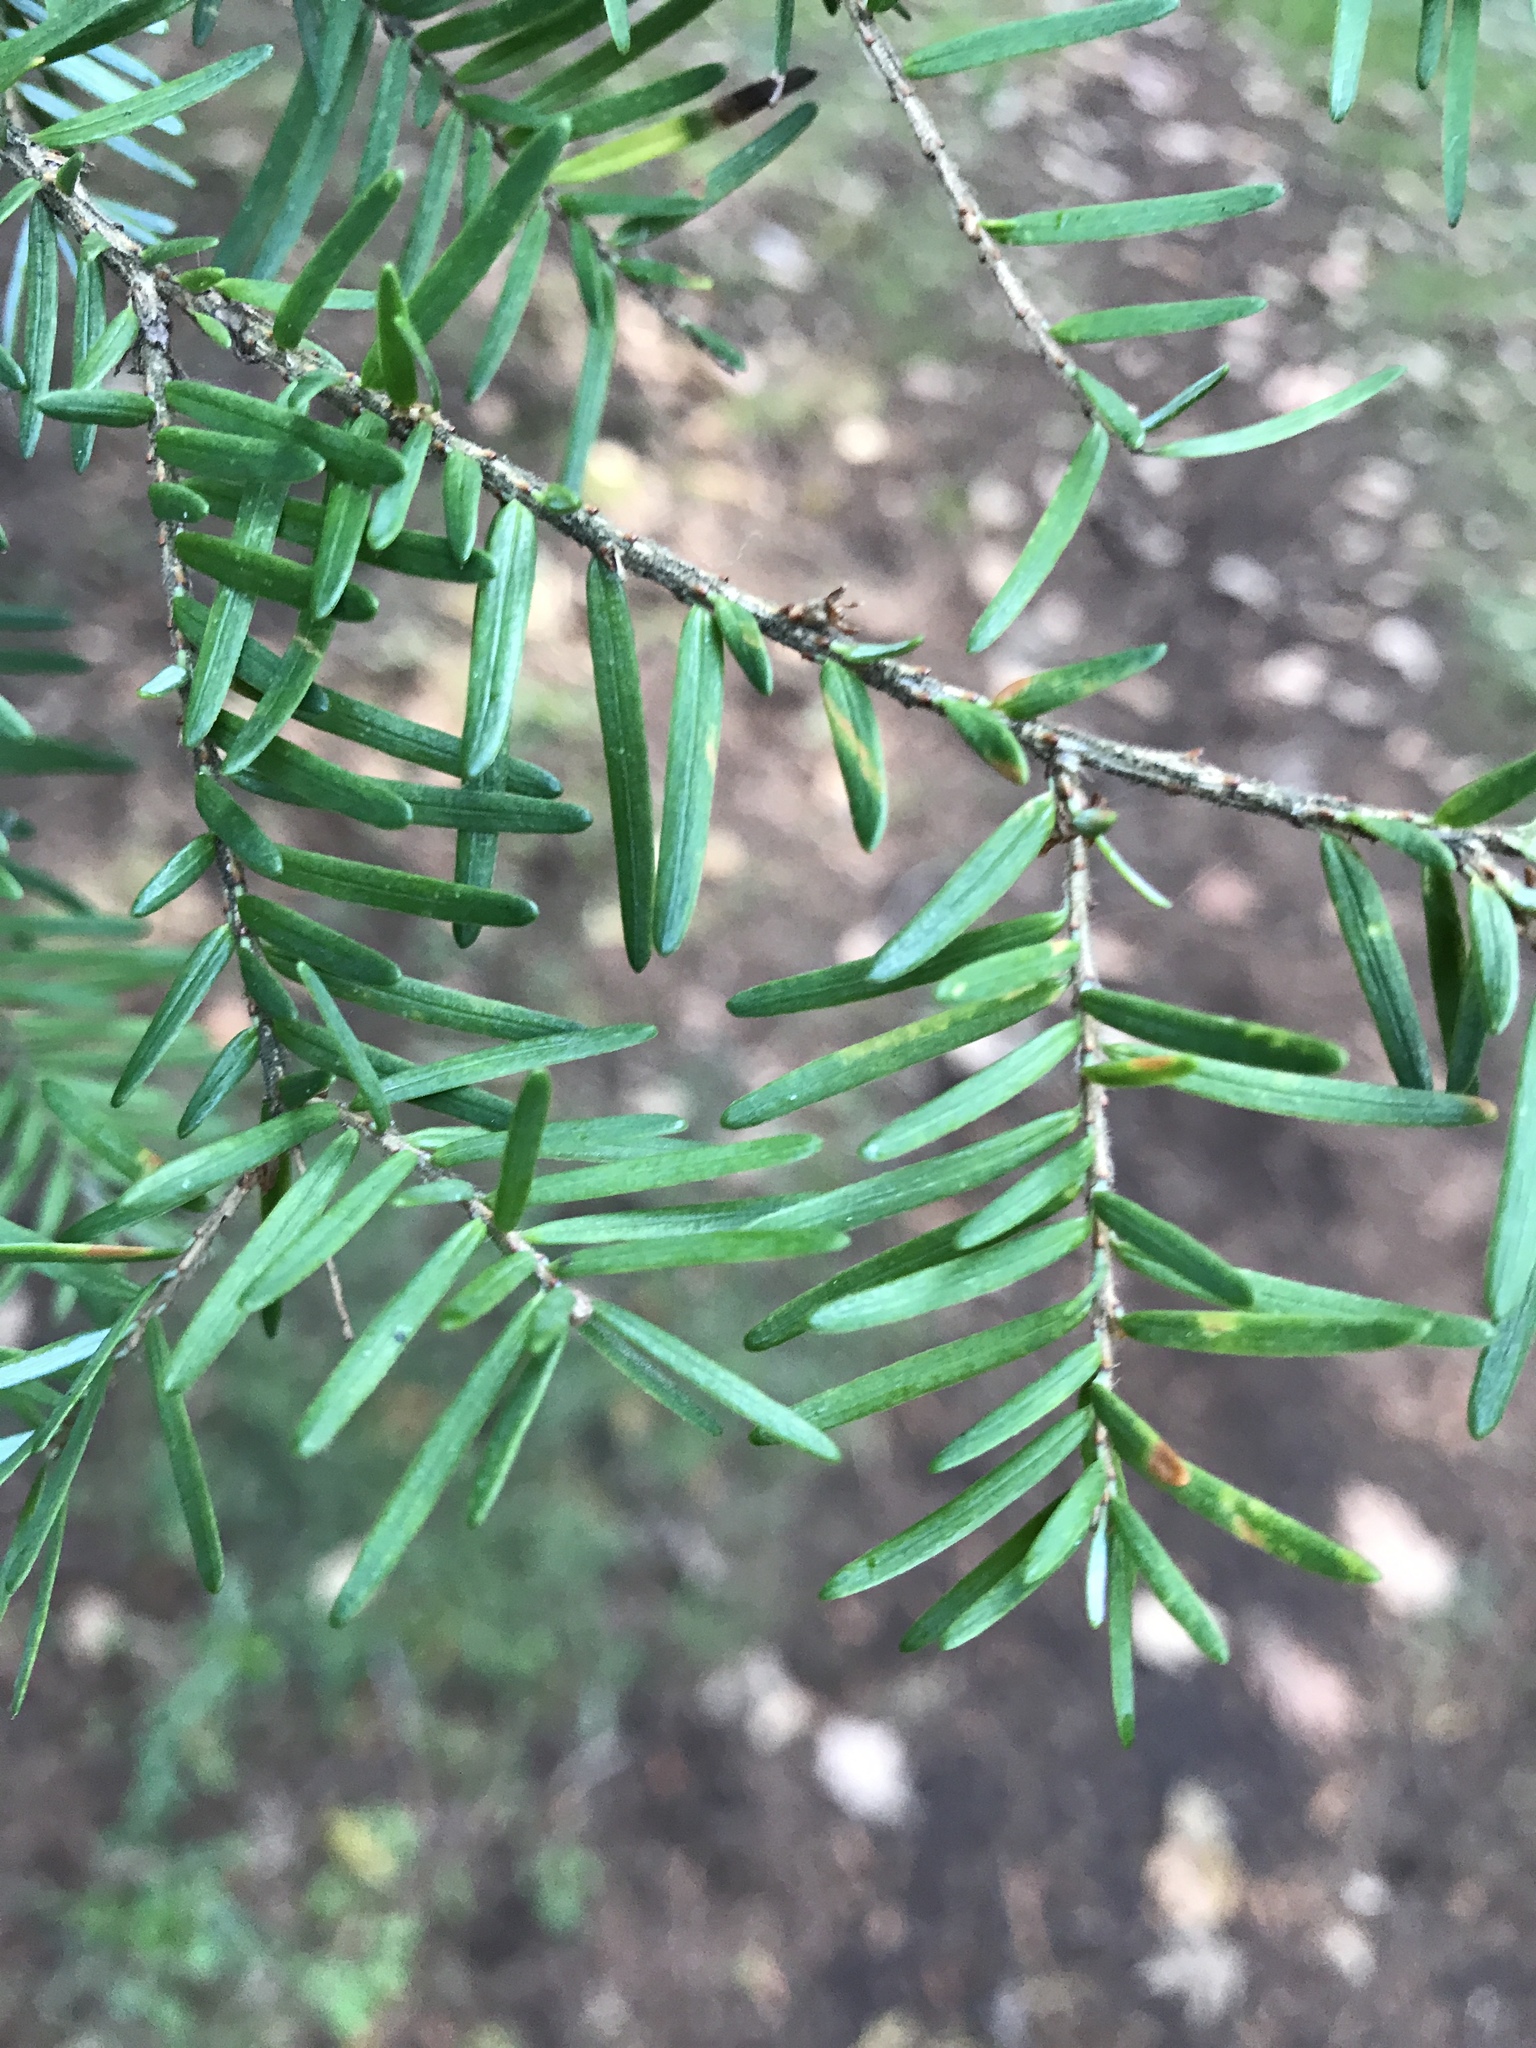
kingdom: Plantae
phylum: Tracheophyta
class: Pinopsida
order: Pinales
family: Pinaceae
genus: Tsuga
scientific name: Tsuga heterophylla
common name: Western hemlock
